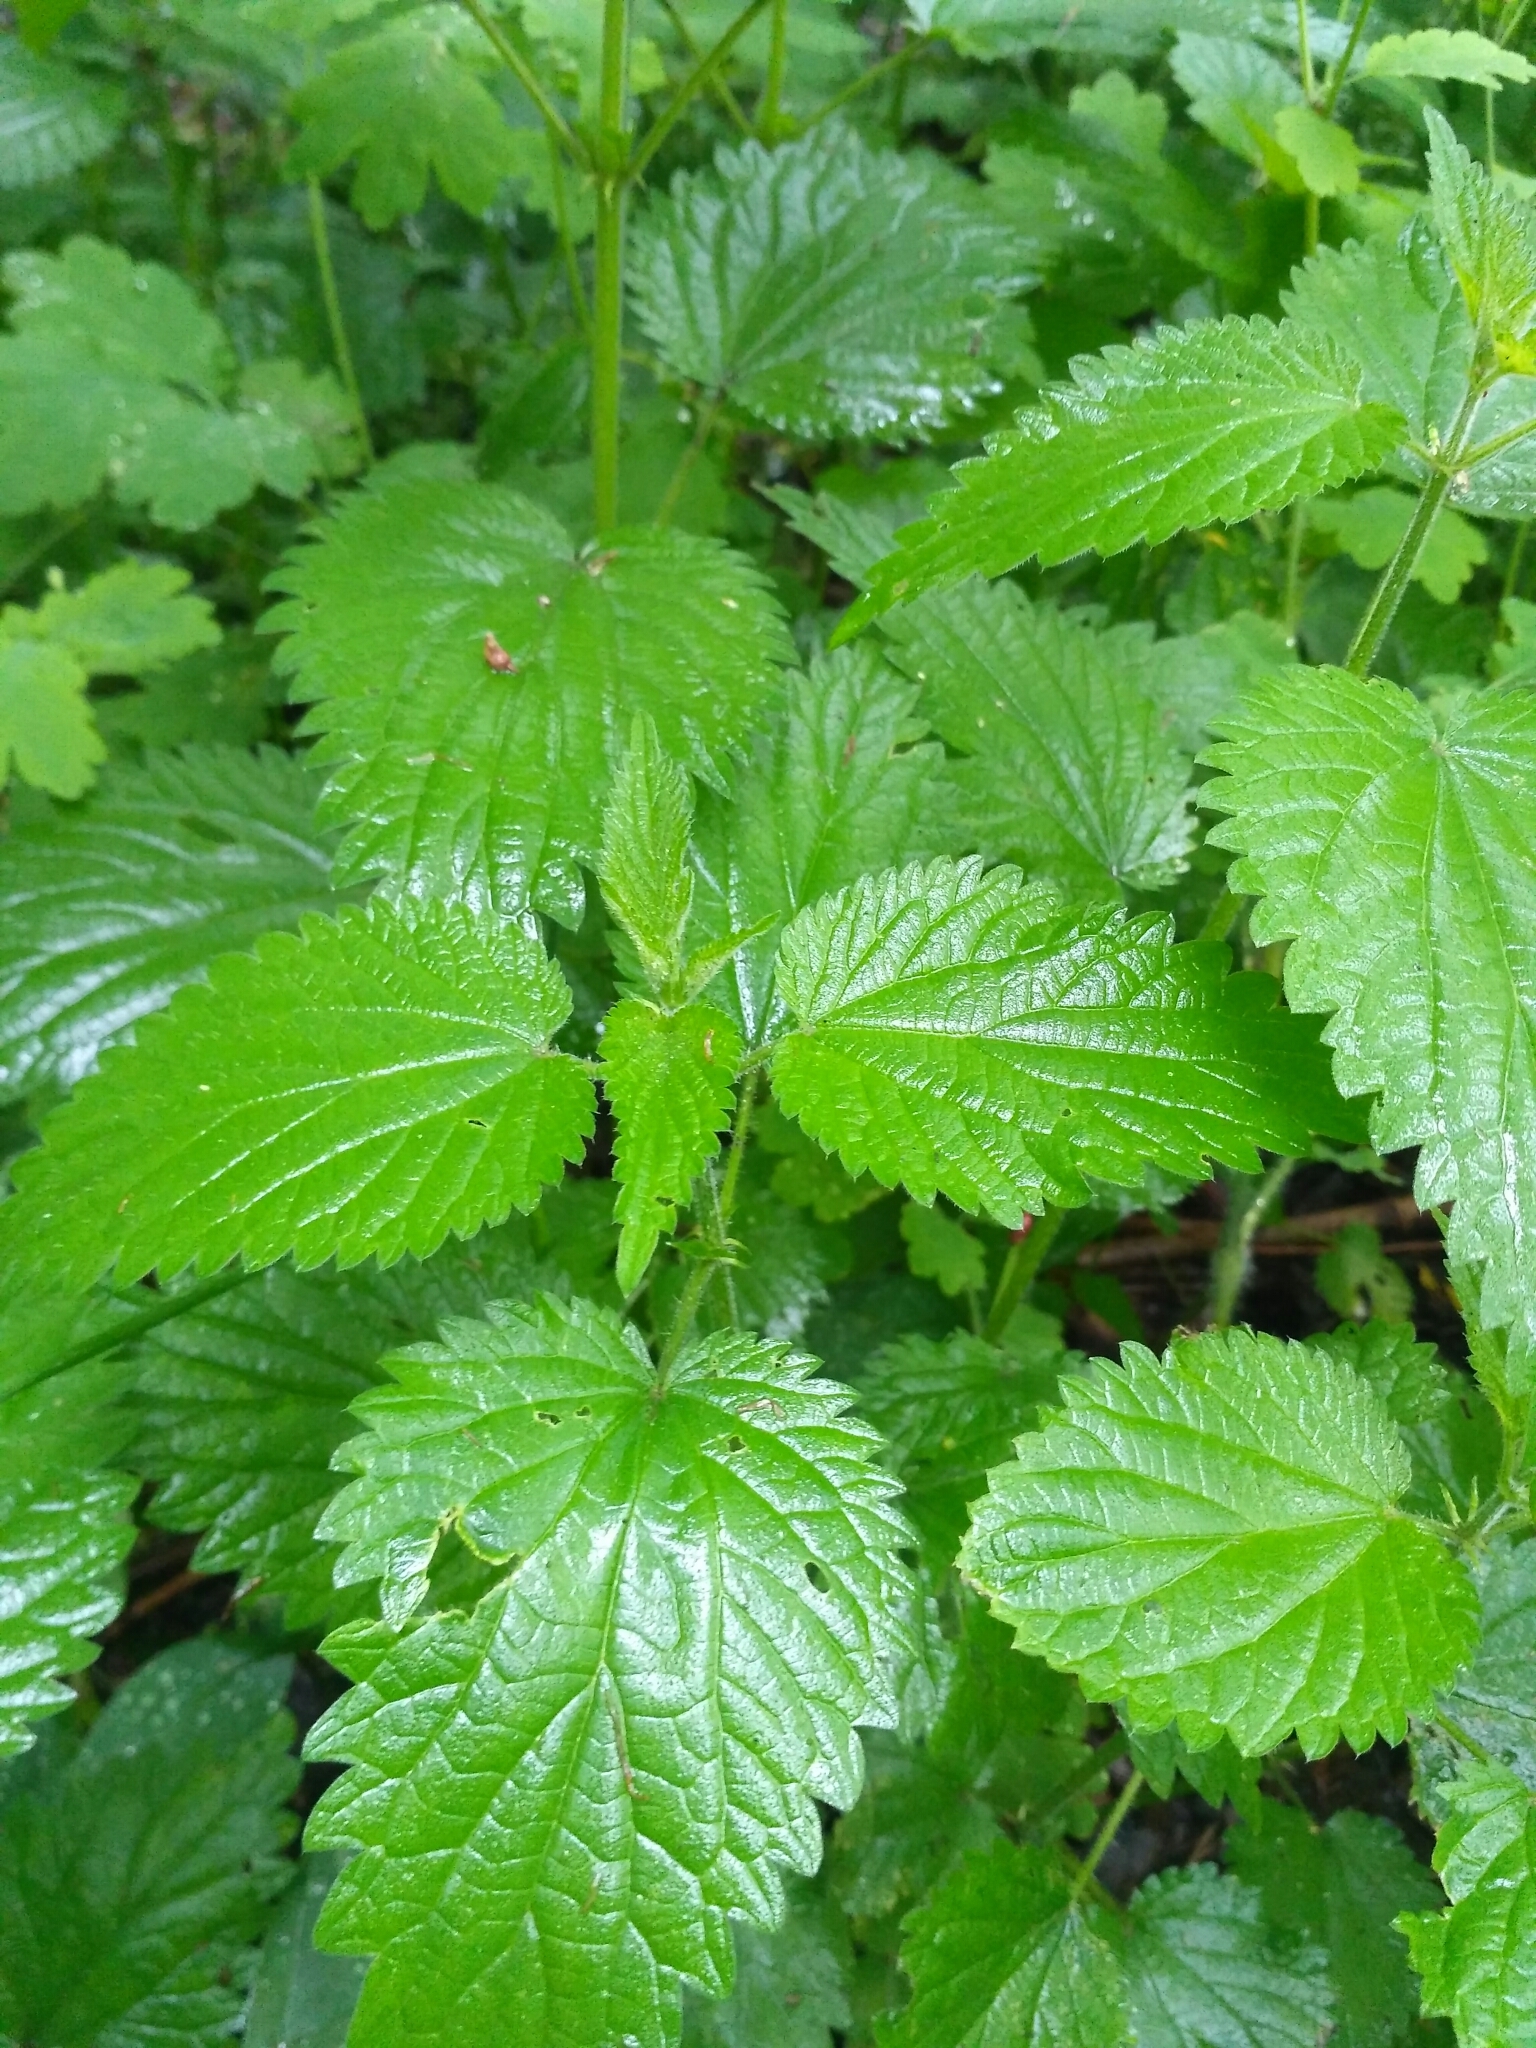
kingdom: Plantae
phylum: Tracheophyta
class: Magnoliopsida
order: Rosales
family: Urticaceae
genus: Urtica
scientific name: Urtica dioica
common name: Common nettle
